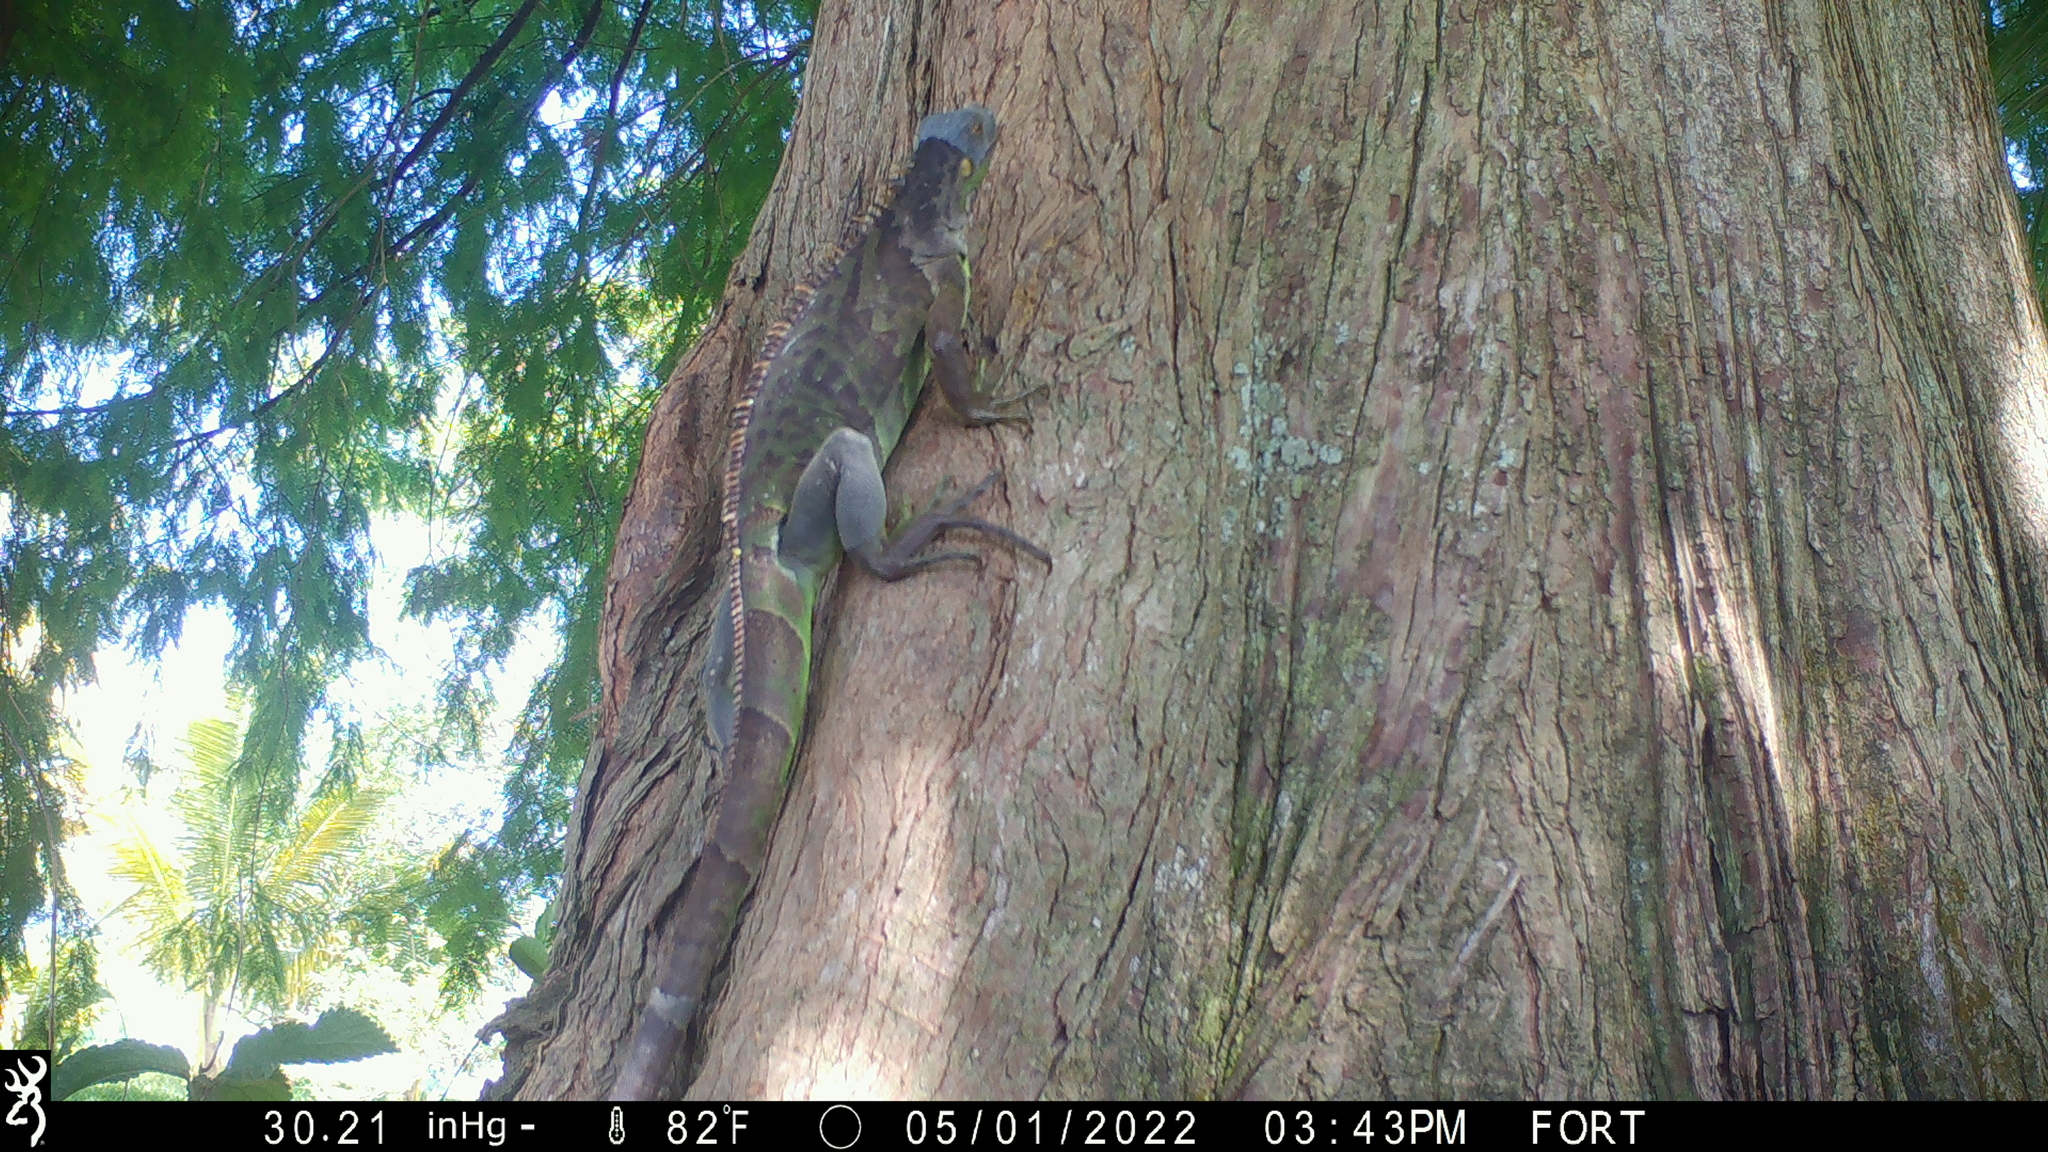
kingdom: Animalia
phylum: Chordata
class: Squamata
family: Iguanidae
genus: Iguana
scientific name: Iguana iguana
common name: Green iguana
